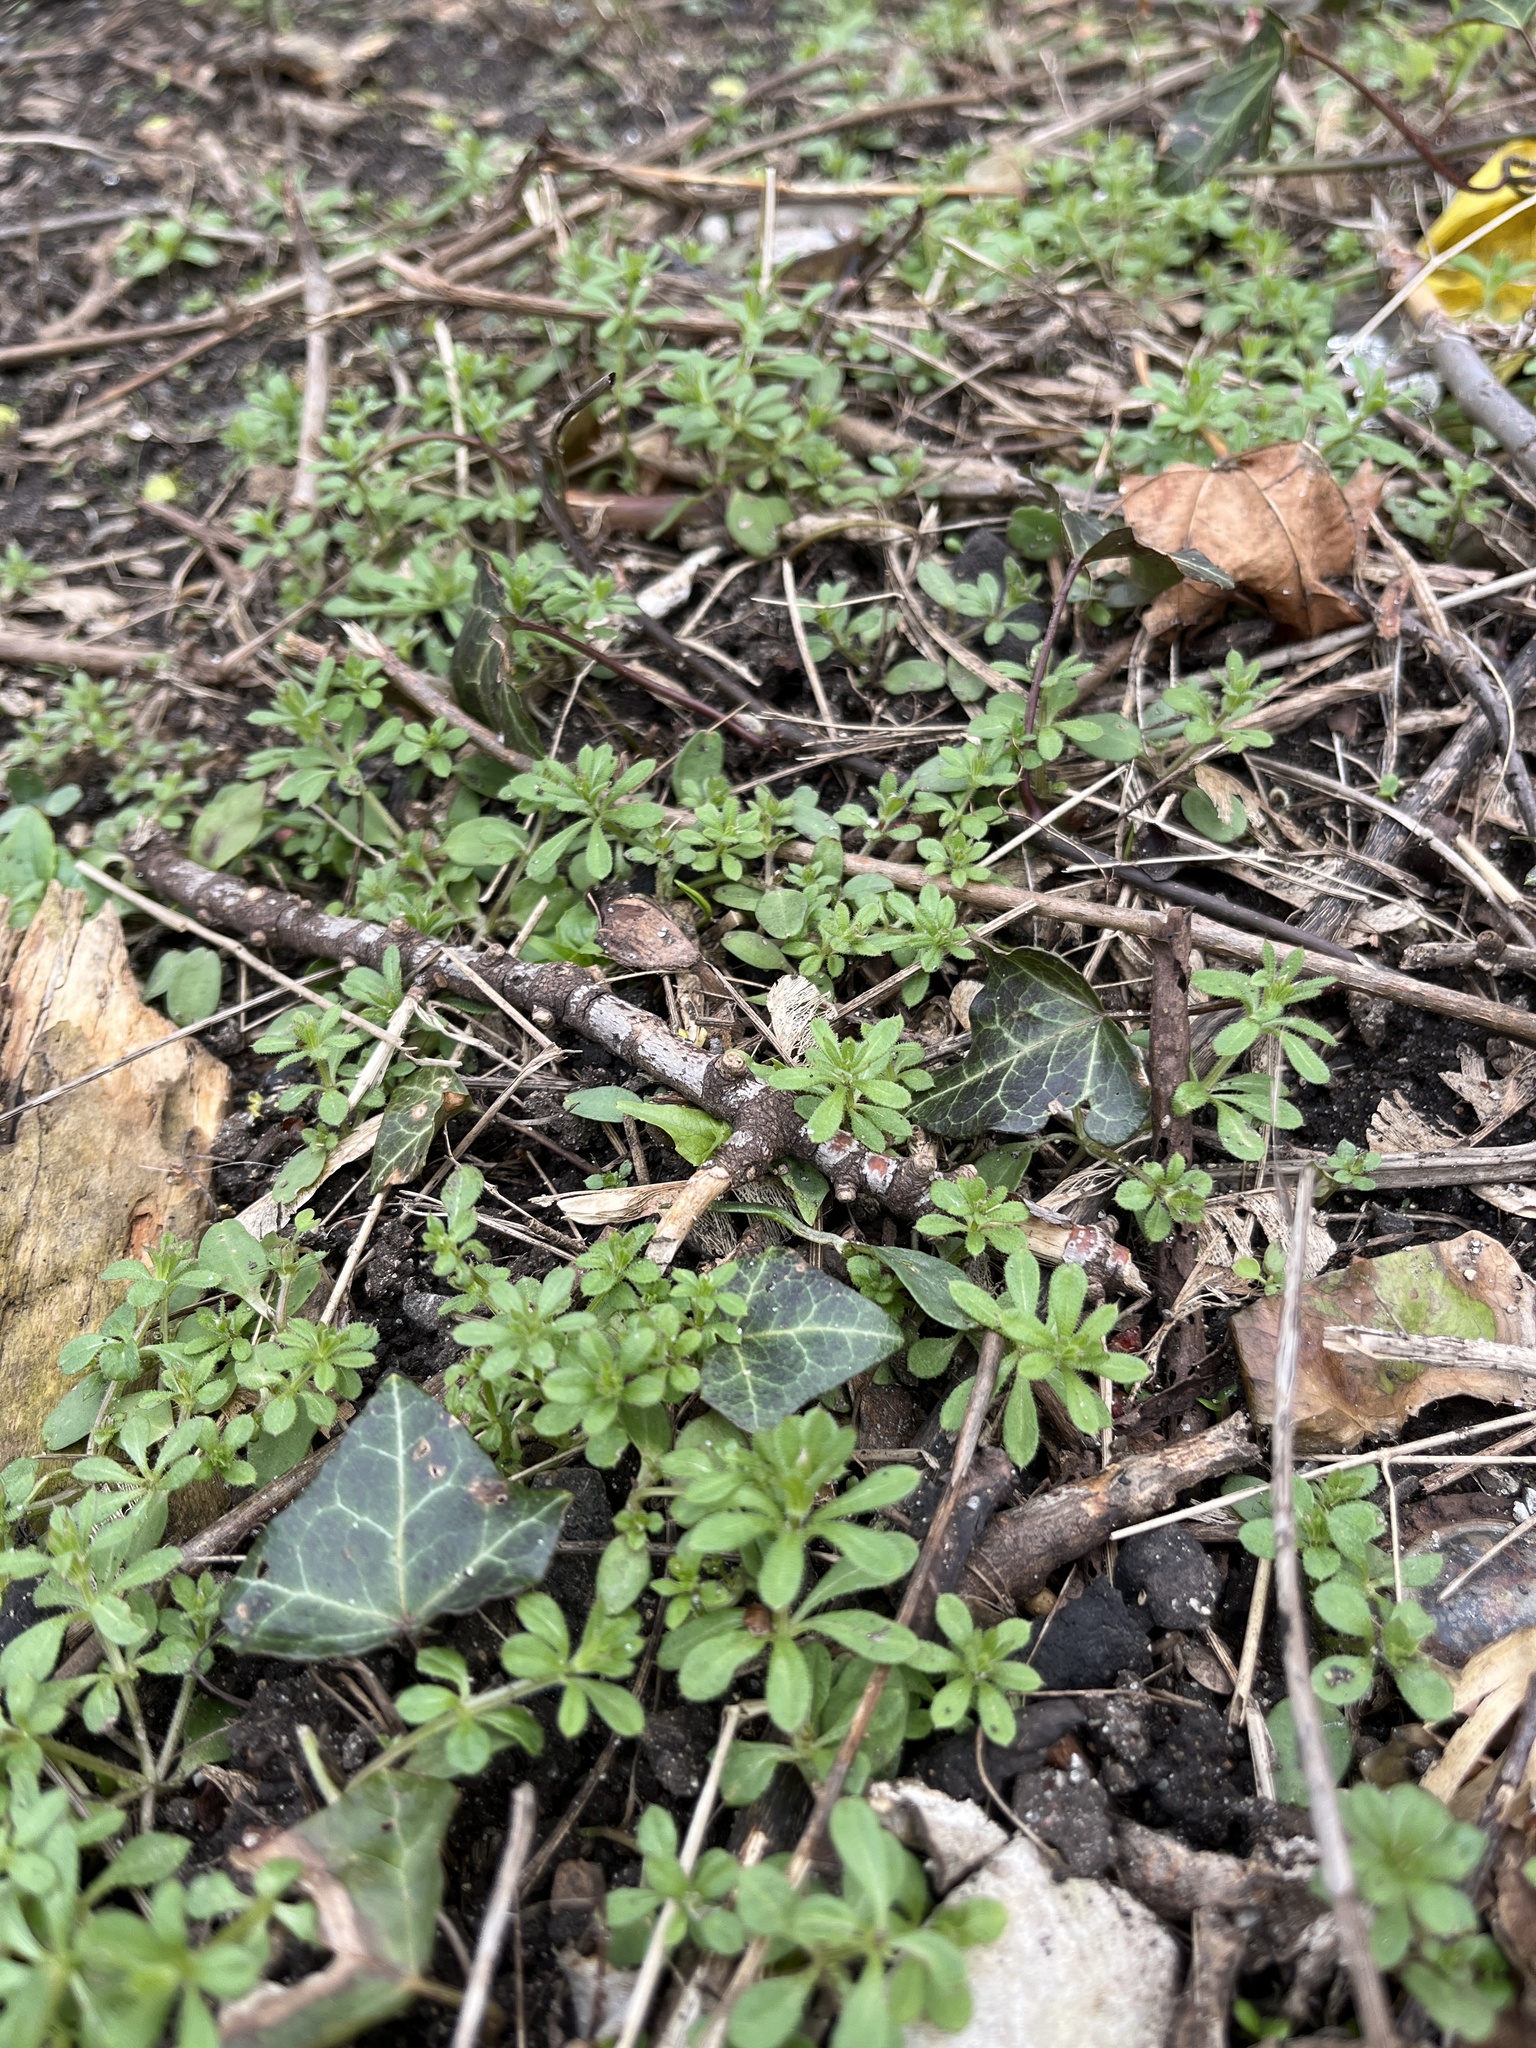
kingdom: Plantae
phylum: Tracheophyta
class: Magnoliopsida
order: Gentianales
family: Rubiaceae
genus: Galium
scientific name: Galium aparine
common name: Cleavers
